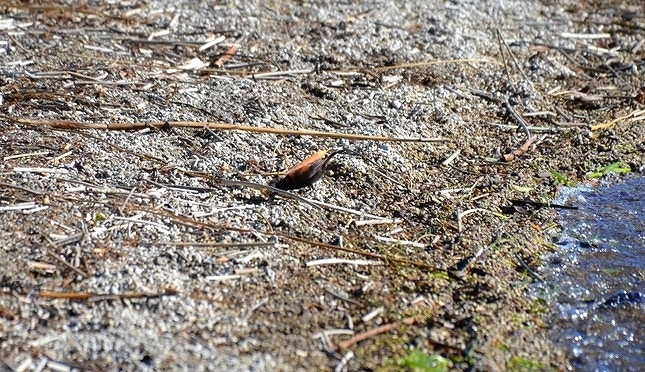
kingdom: Animalia
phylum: Chordata
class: Aves
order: Passeriformes
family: Tyrannidae
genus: Lessonia
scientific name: Lessonia rufa
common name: Austral negrito
